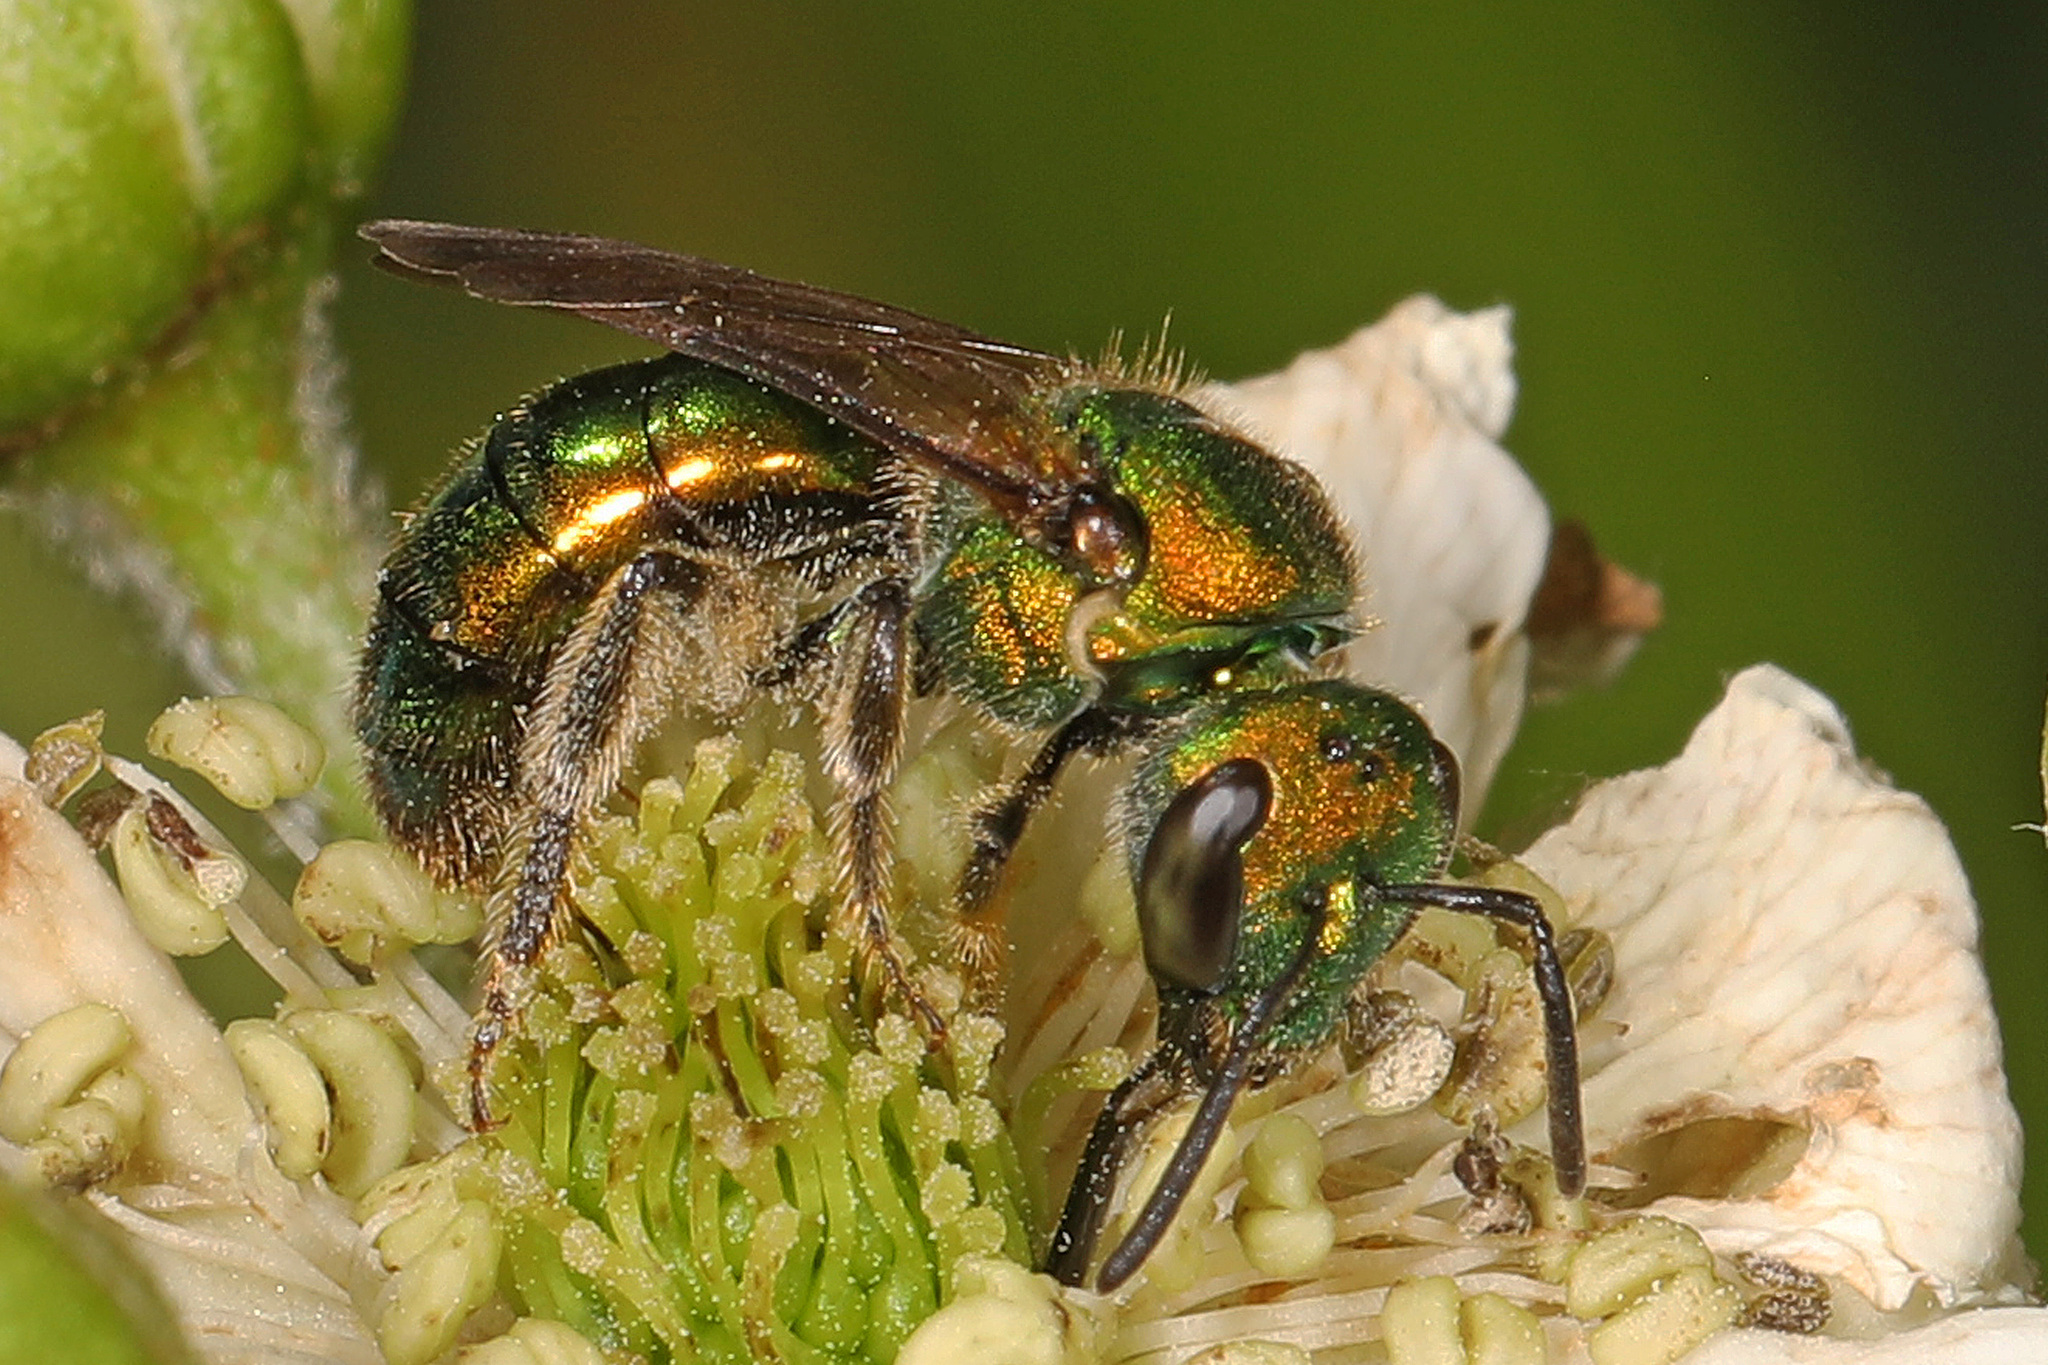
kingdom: Animalia
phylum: Arthropoda
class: Insecta
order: Hymenoptera
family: Halictidae
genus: Augochlora
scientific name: Augochlora pura
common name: Pure green sweat bee
